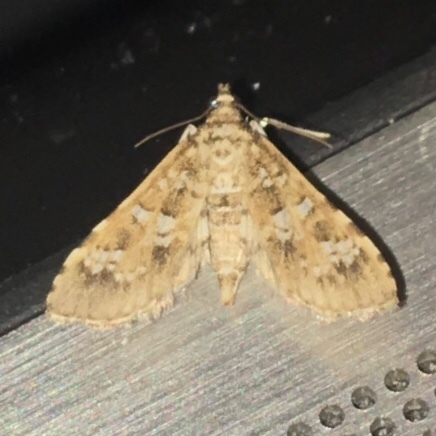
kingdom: Animalia
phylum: Arthropoda
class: Insecta
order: Lepidoptera
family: Crambidae
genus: Samea
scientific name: Samea multiplicalis
